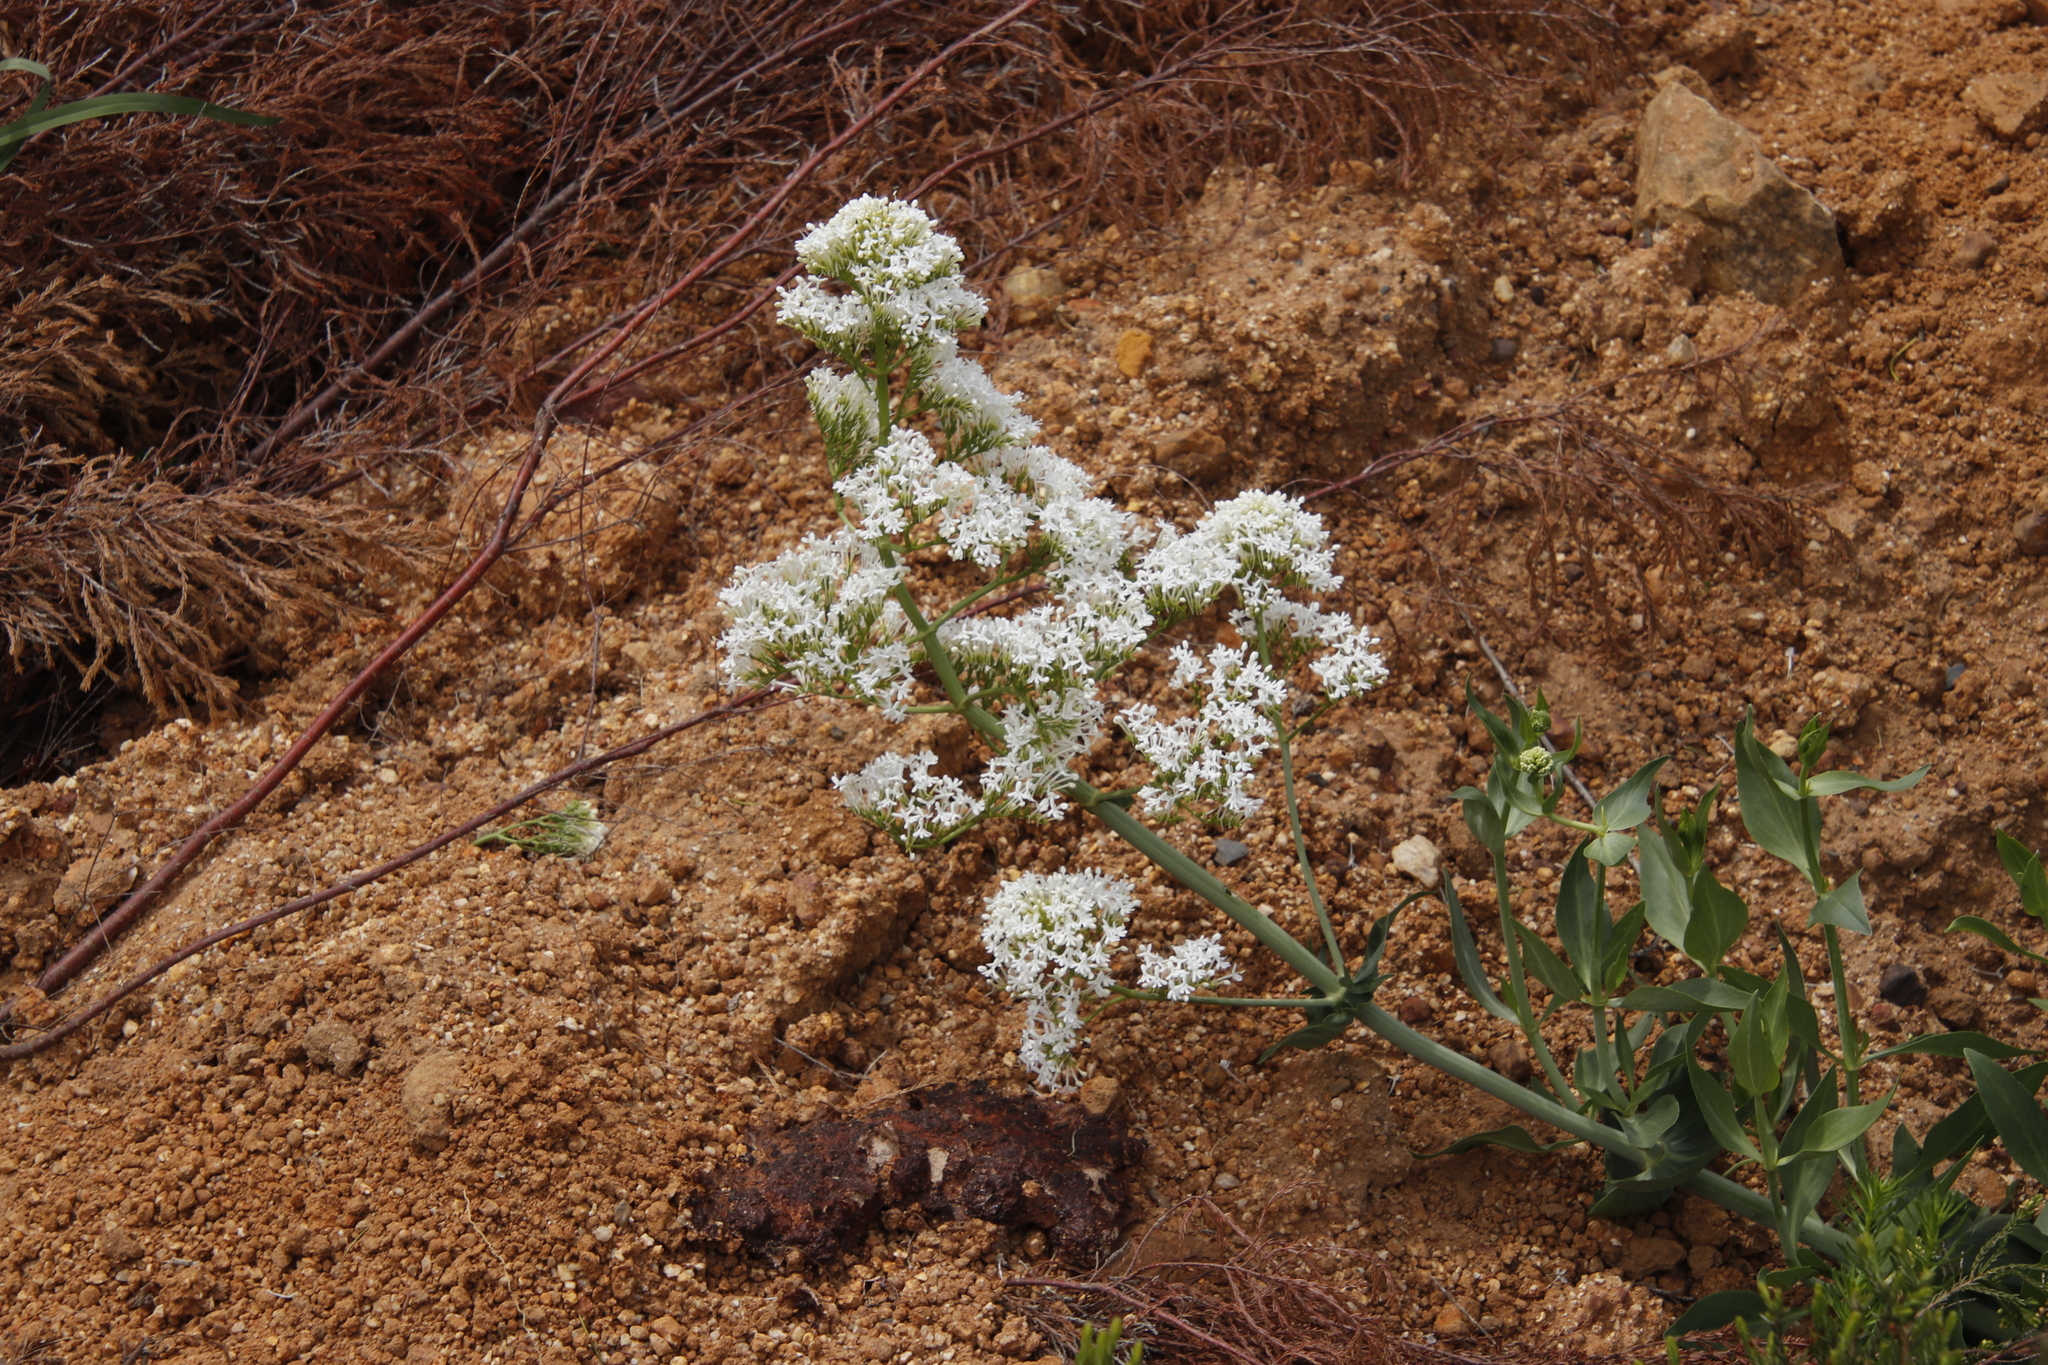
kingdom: Plantae
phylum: Tracheophyta
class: Magnoliopsida
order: Dipsacales
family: Caprifoliaceae
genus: Centranthus
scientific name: Centranthus ruber
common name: Red valerian
